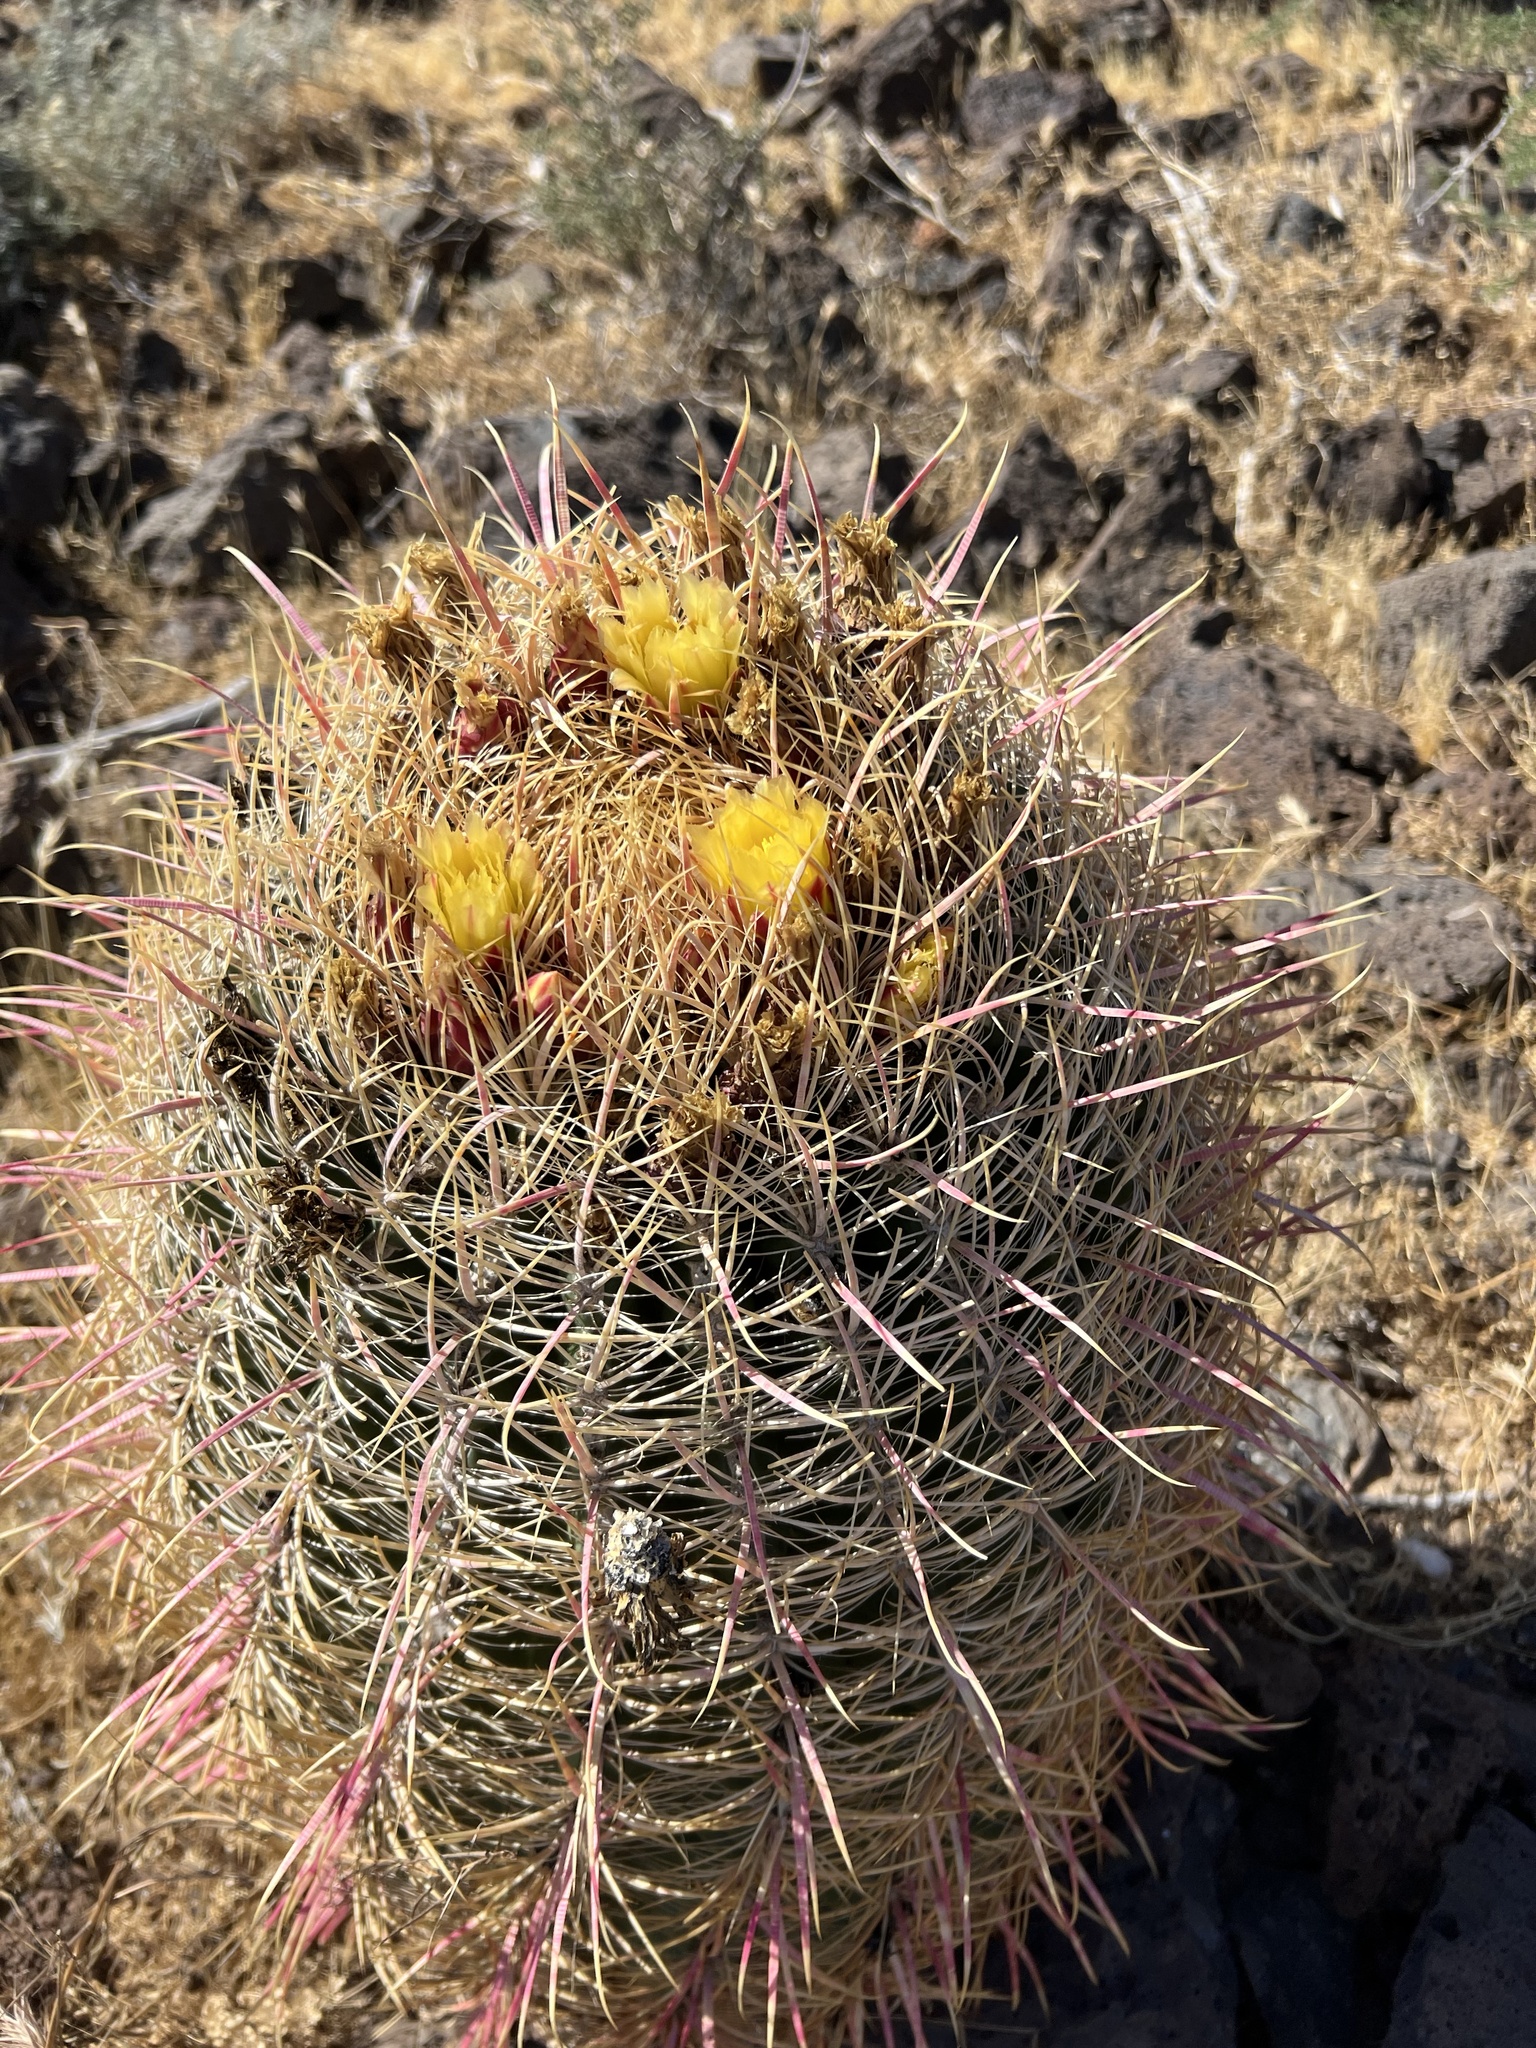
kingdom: Plantae
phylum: Tracheophyta
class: Magnoliopsida
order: Caryophyllales
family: Cactaceae
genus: Ferocactus
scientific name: Ferocactus cylindraceus
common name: California barrel cactus
